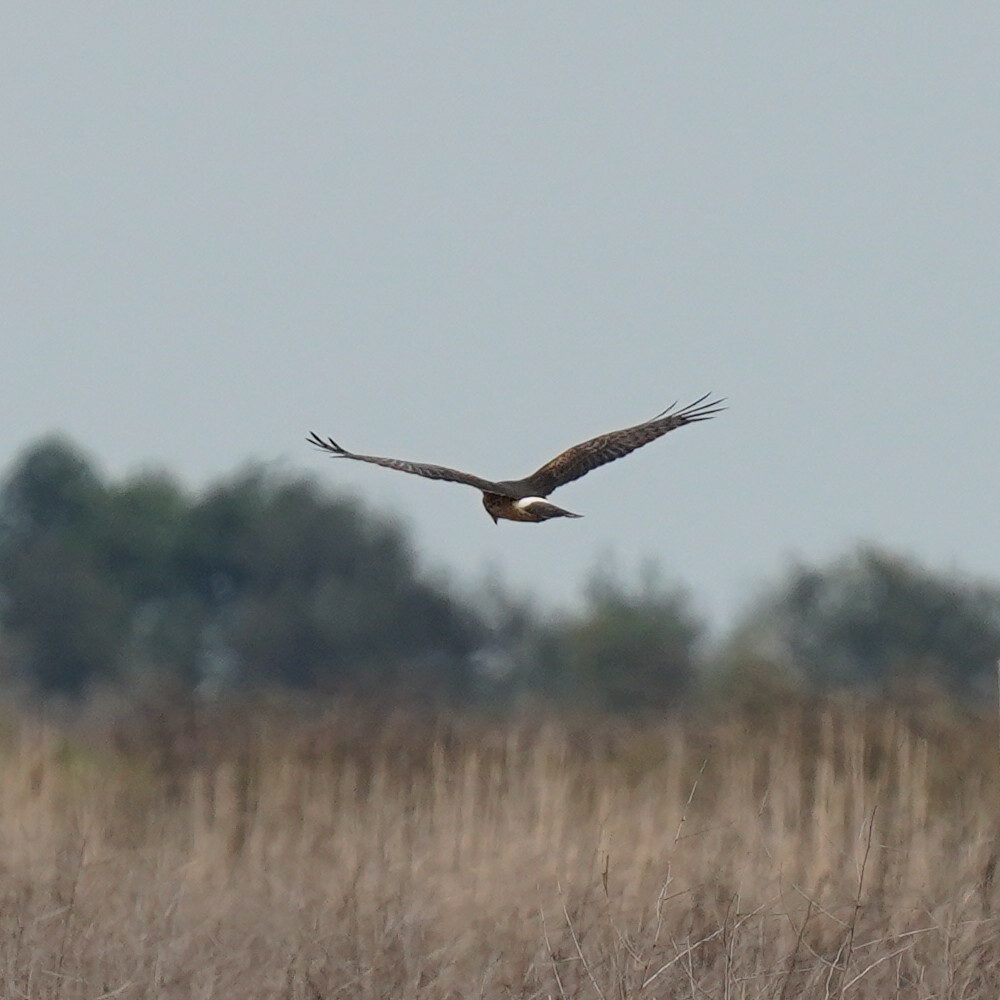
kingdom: Animalia
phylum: Chordata
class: Aves
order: Accipitriformes
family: Accipitridae
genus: Circus
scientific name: Circus cyaneus
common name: Hen harrier
